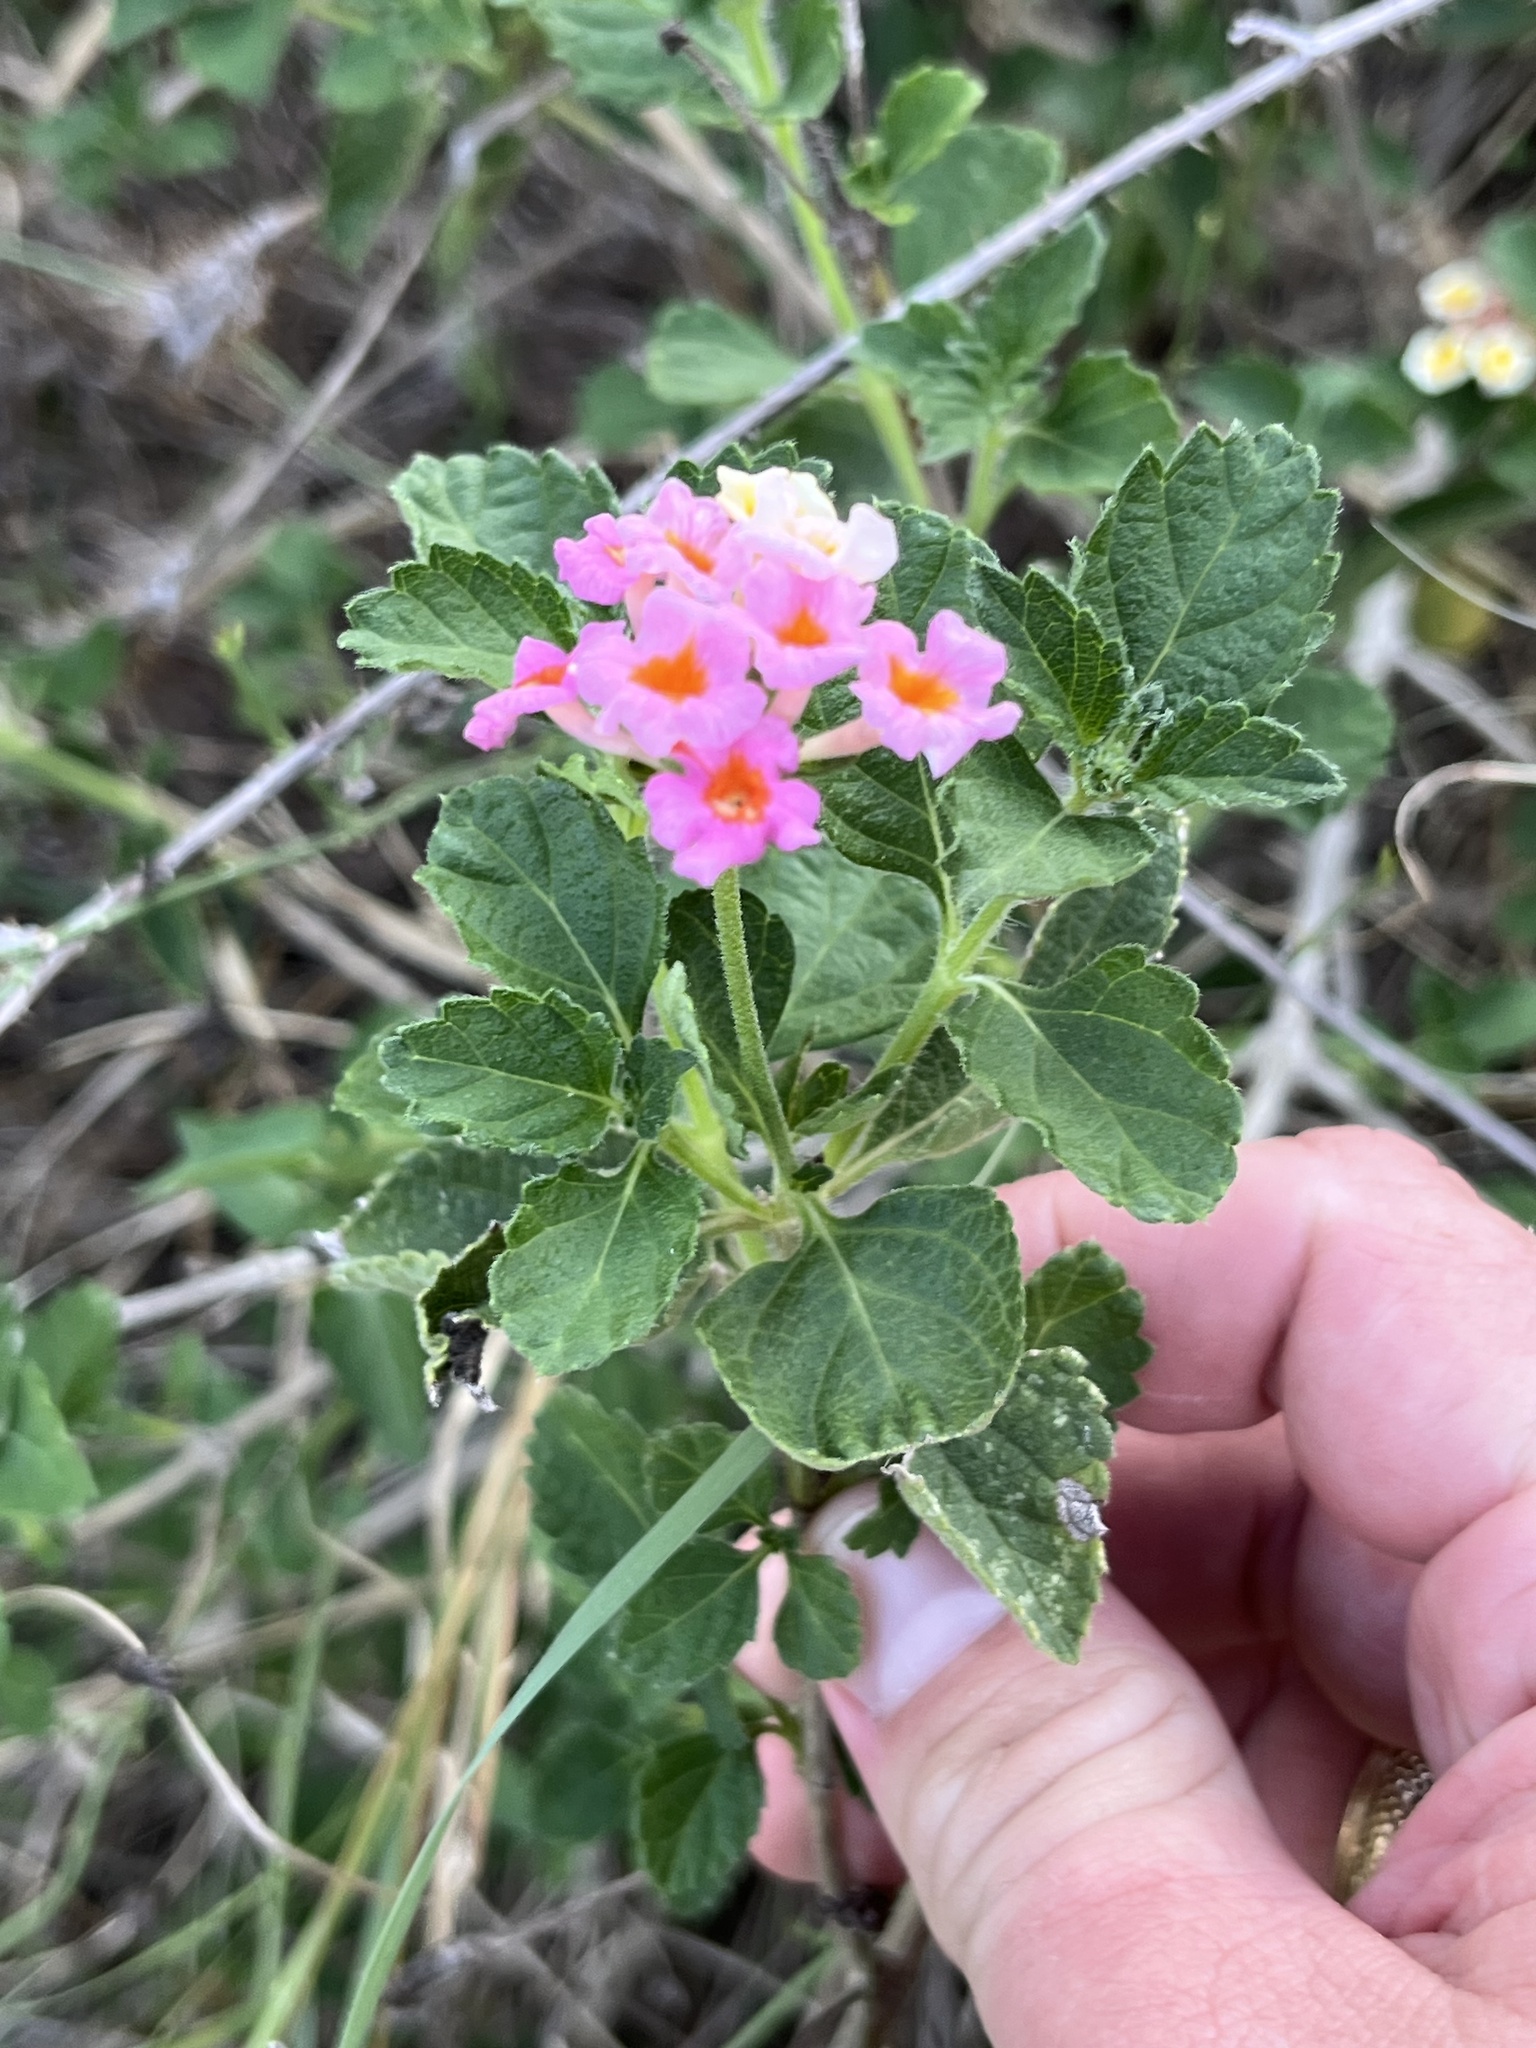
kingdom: Plantae
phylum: Tracheophyta
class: Magnoliopsida
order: Lamiales
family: Verbenaceae
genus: Lantana
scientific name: Lantana strigocamara
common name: Lantana
